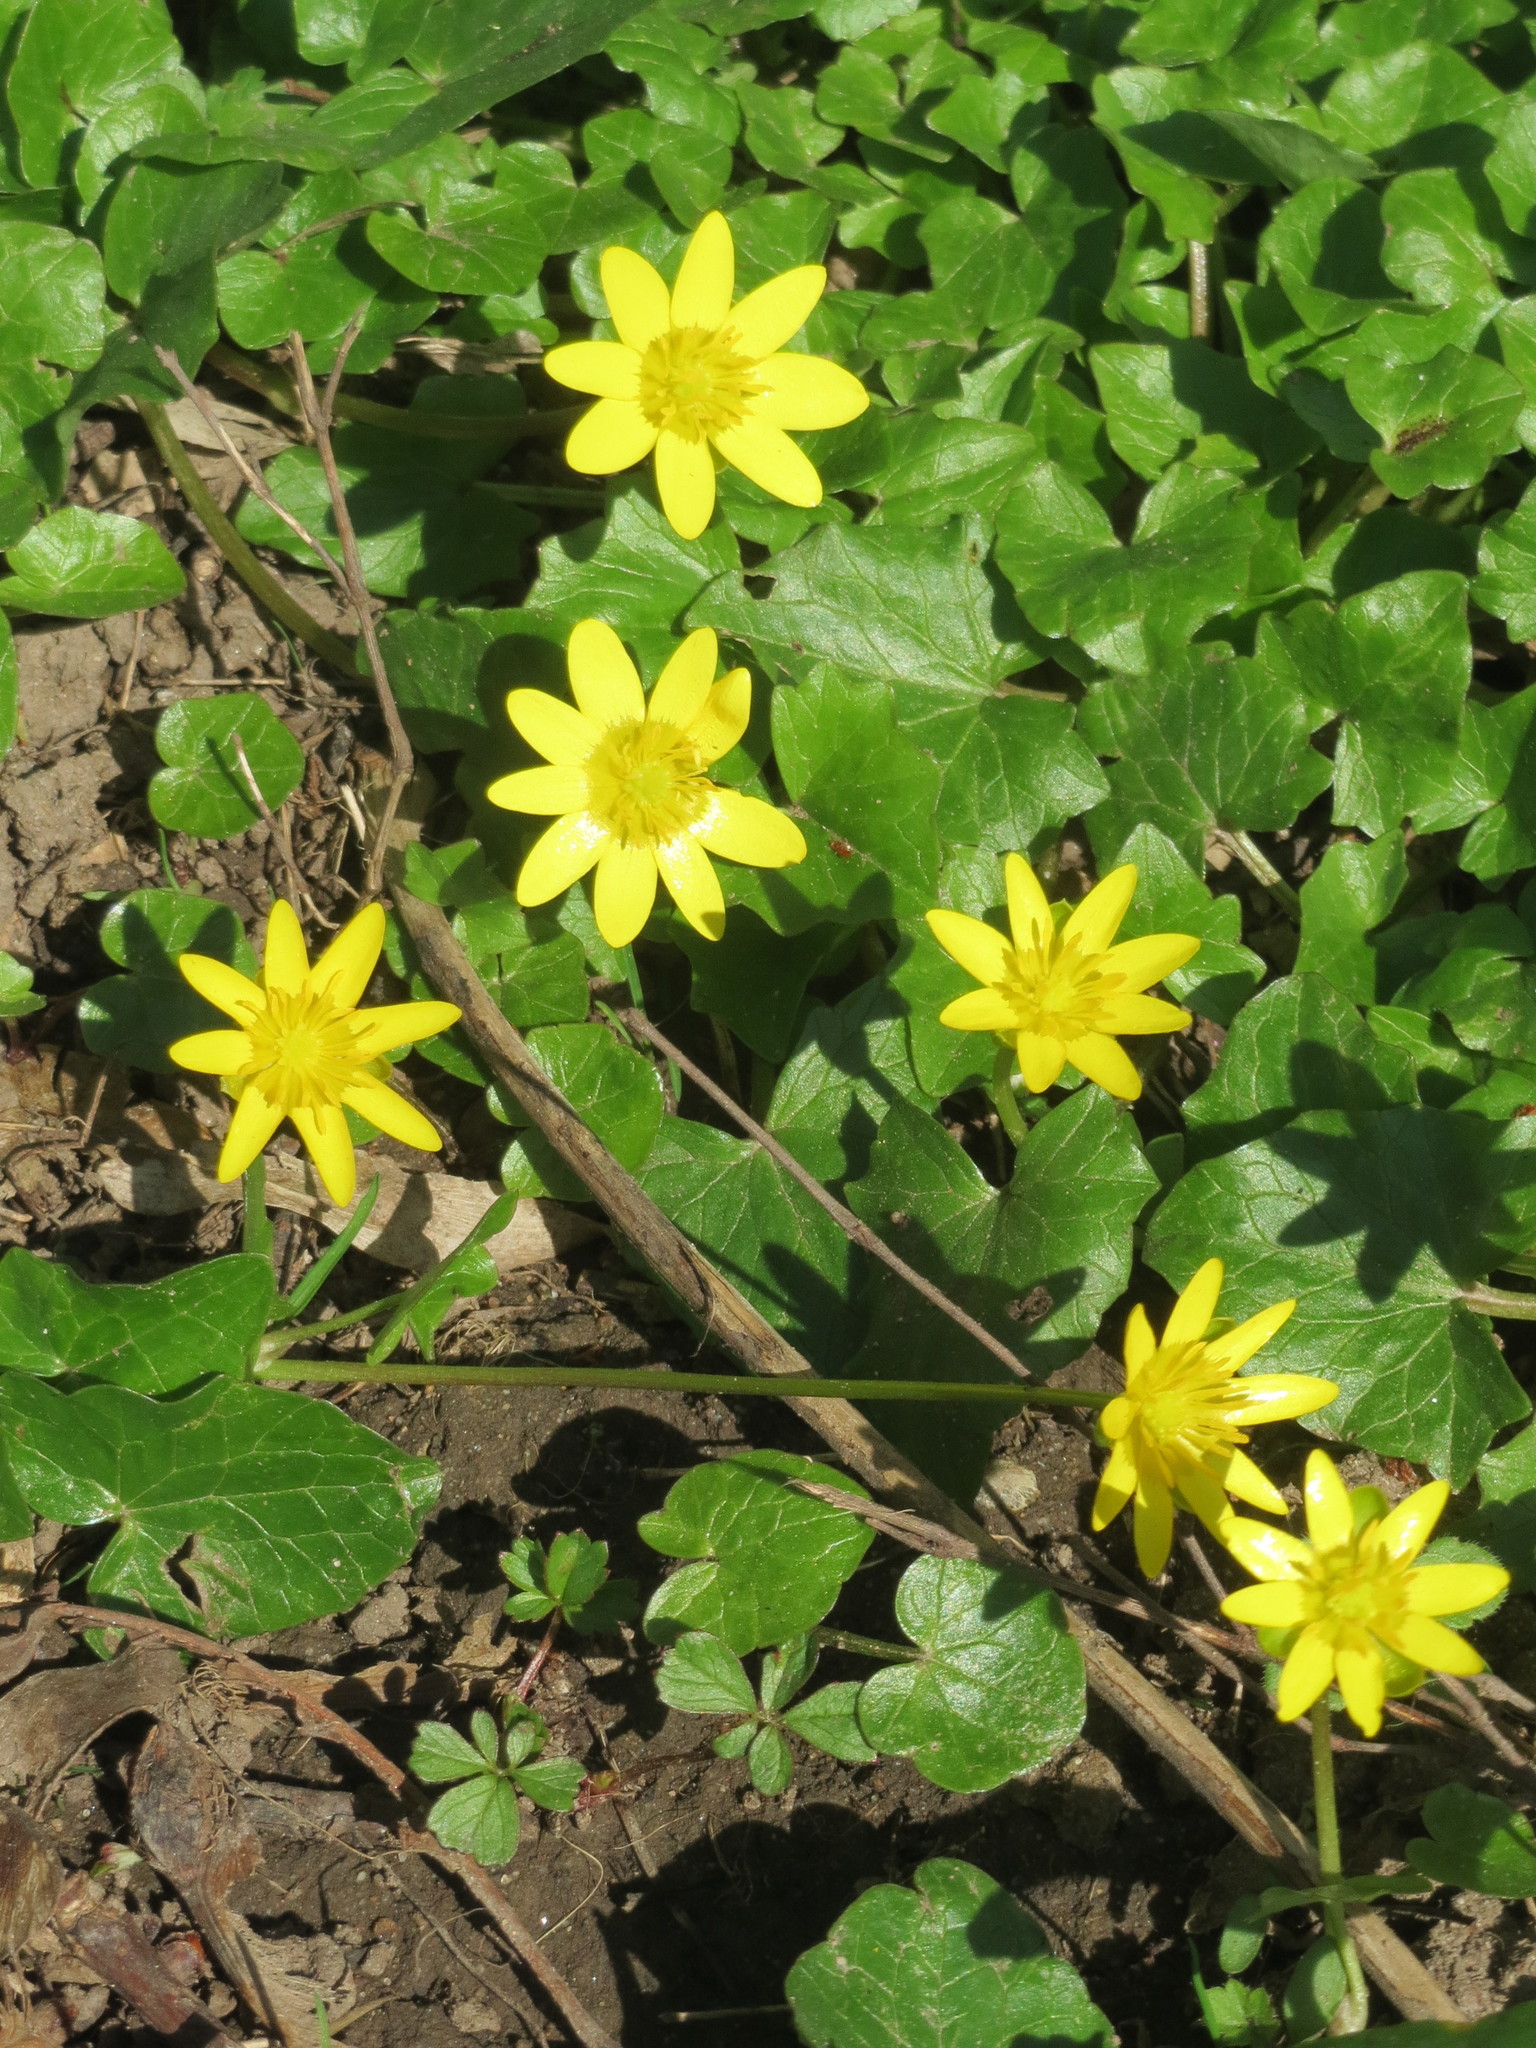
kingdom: Plantae
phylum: Tracheophyta
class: Magnoliopsida
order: Ranunculales
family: Ranunculaceae
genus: Ficaria
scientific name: Ficaria verna
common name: Lesser celandine
